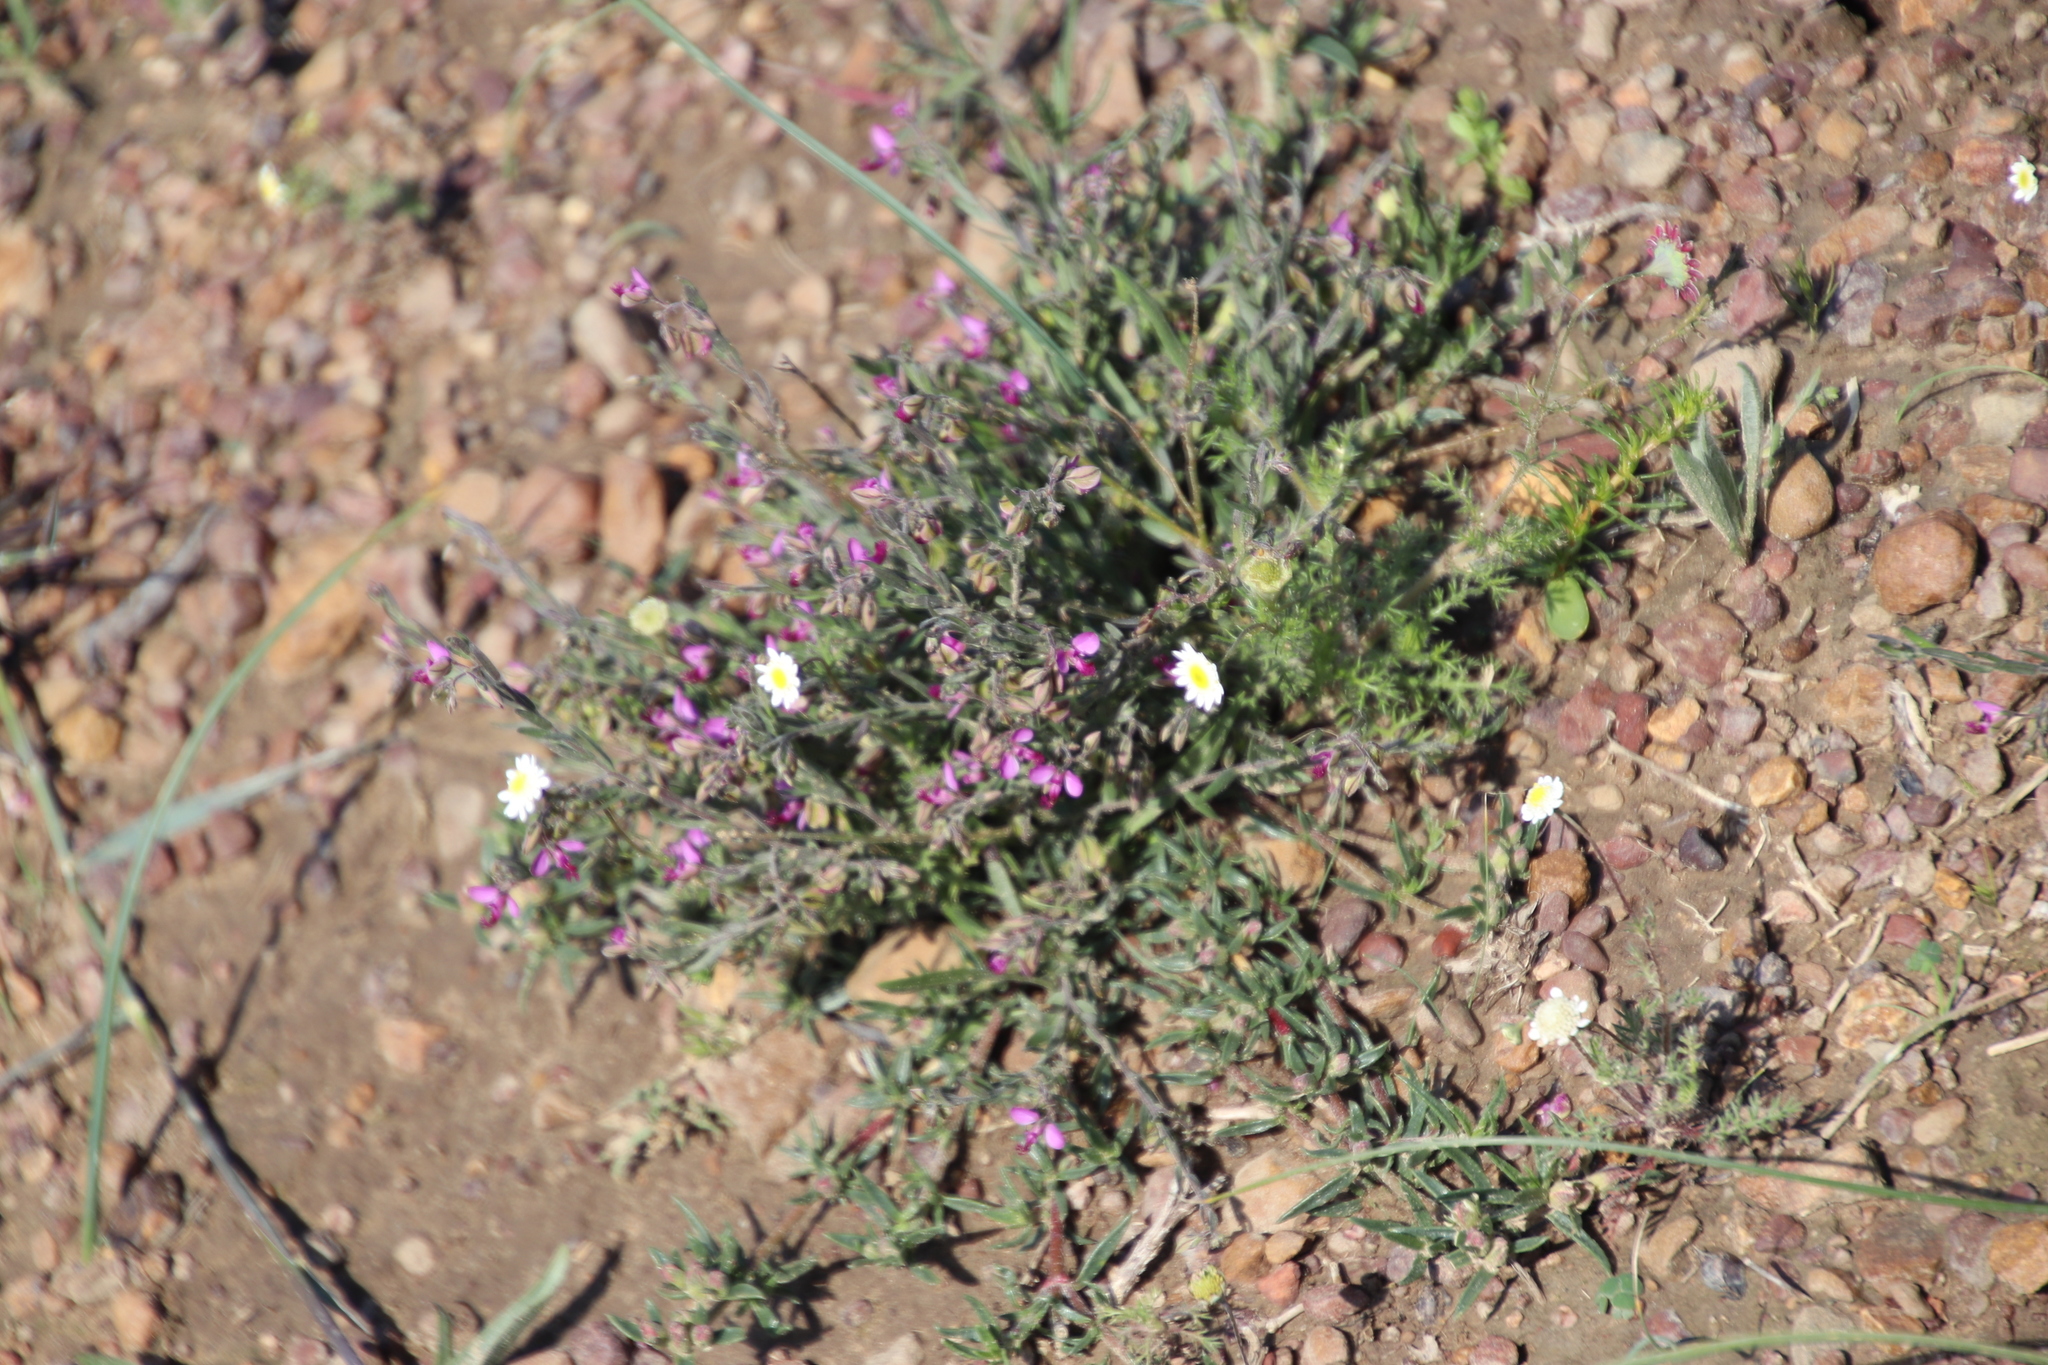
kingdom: Plantae
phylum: Tracheophyta
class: Magnoliopsida
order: Fabales
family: Polygalaceae
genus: Polygala
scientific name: Polygala scabra
